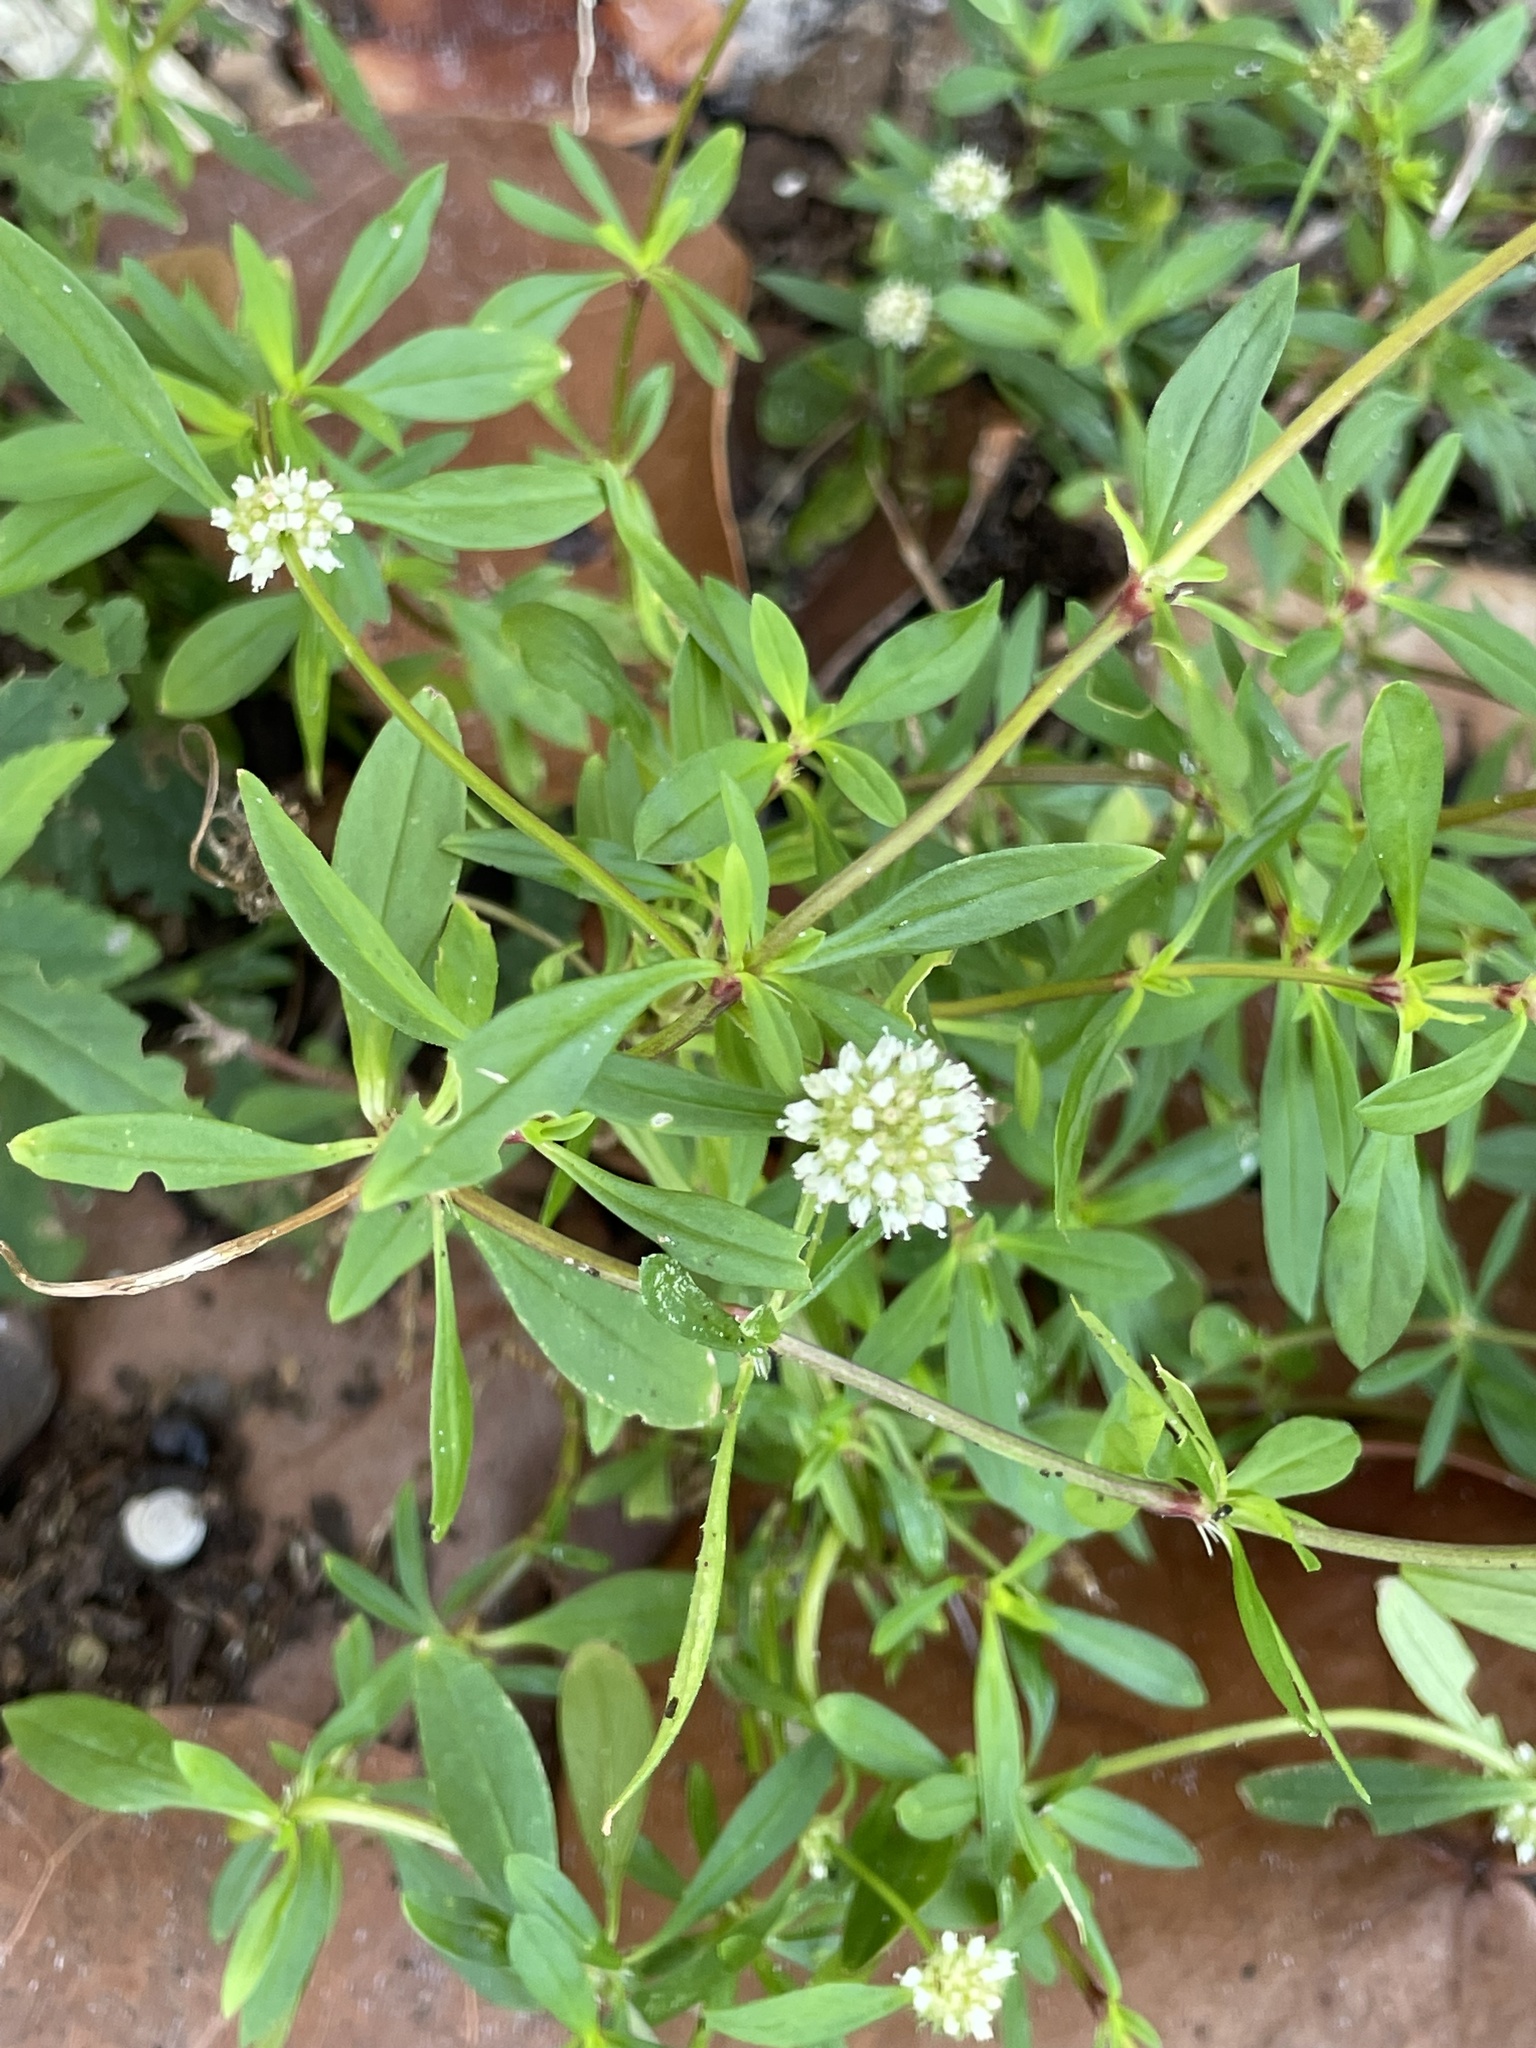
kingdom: Plantae
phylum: Tracheophyta
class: Magnoliopsida
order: Gentianales
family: Rubiaceae
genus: Spermacoce
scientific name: Spermacoce verticillata
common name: Shrubby false buttonweed
